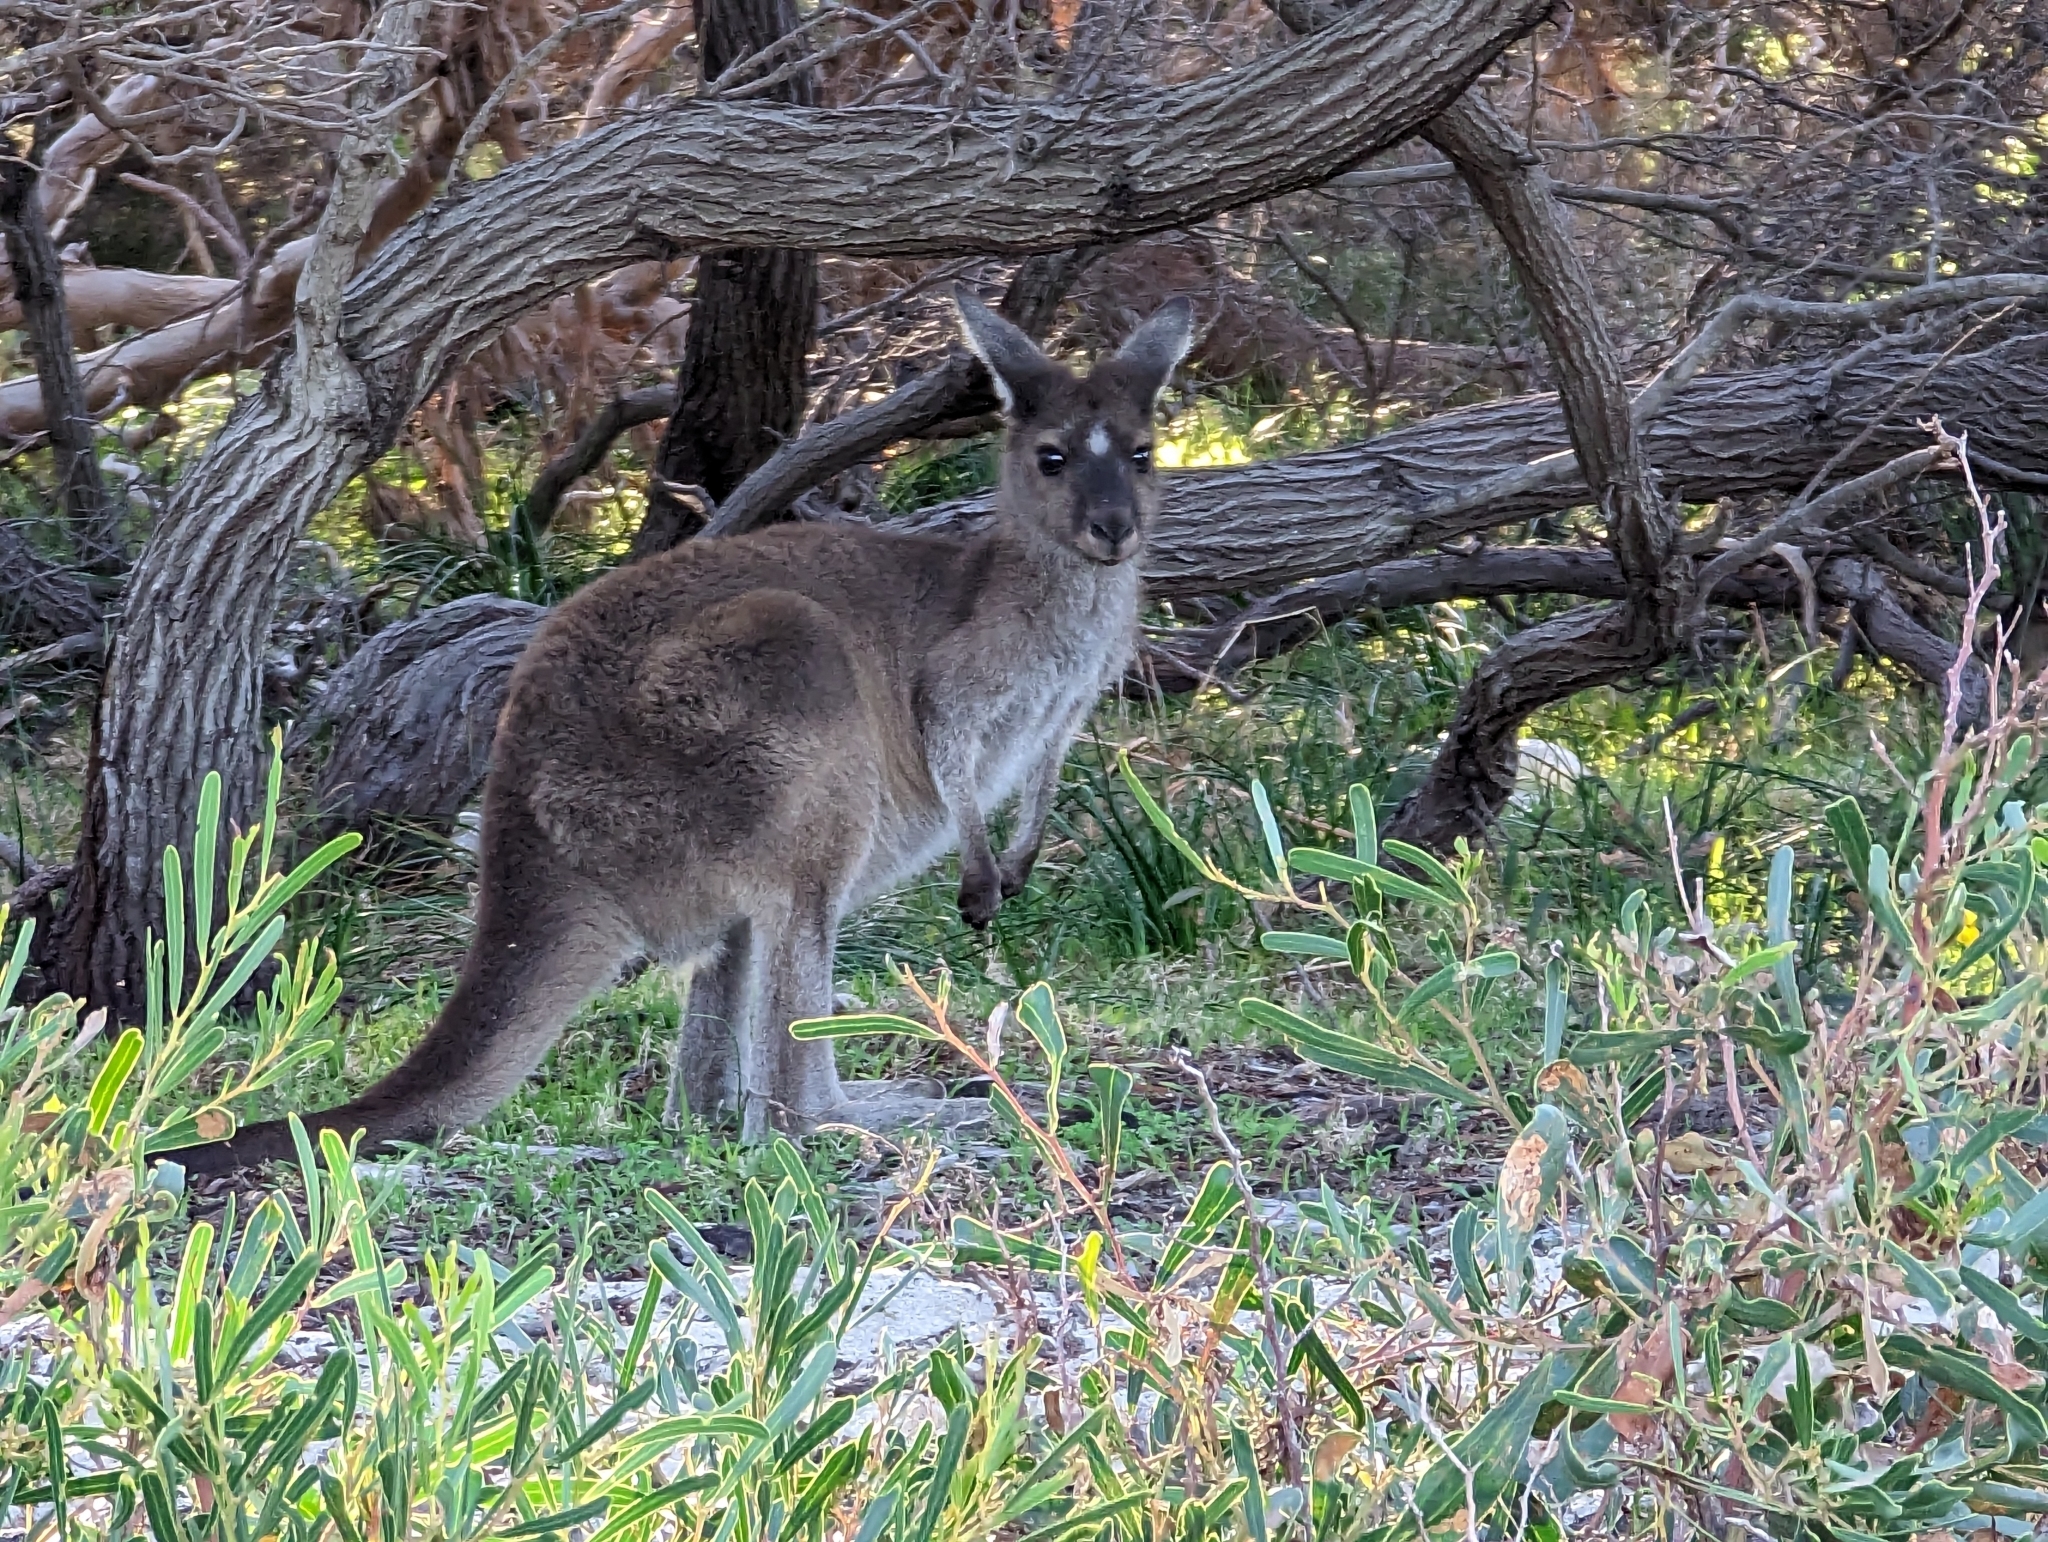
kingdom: Animalia
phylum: Chordata
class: Mammalia
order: Diprotodontia
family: Macropodidae
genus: Macropus
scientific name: Macropus fuliginosus
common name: Western grey kangaroo
